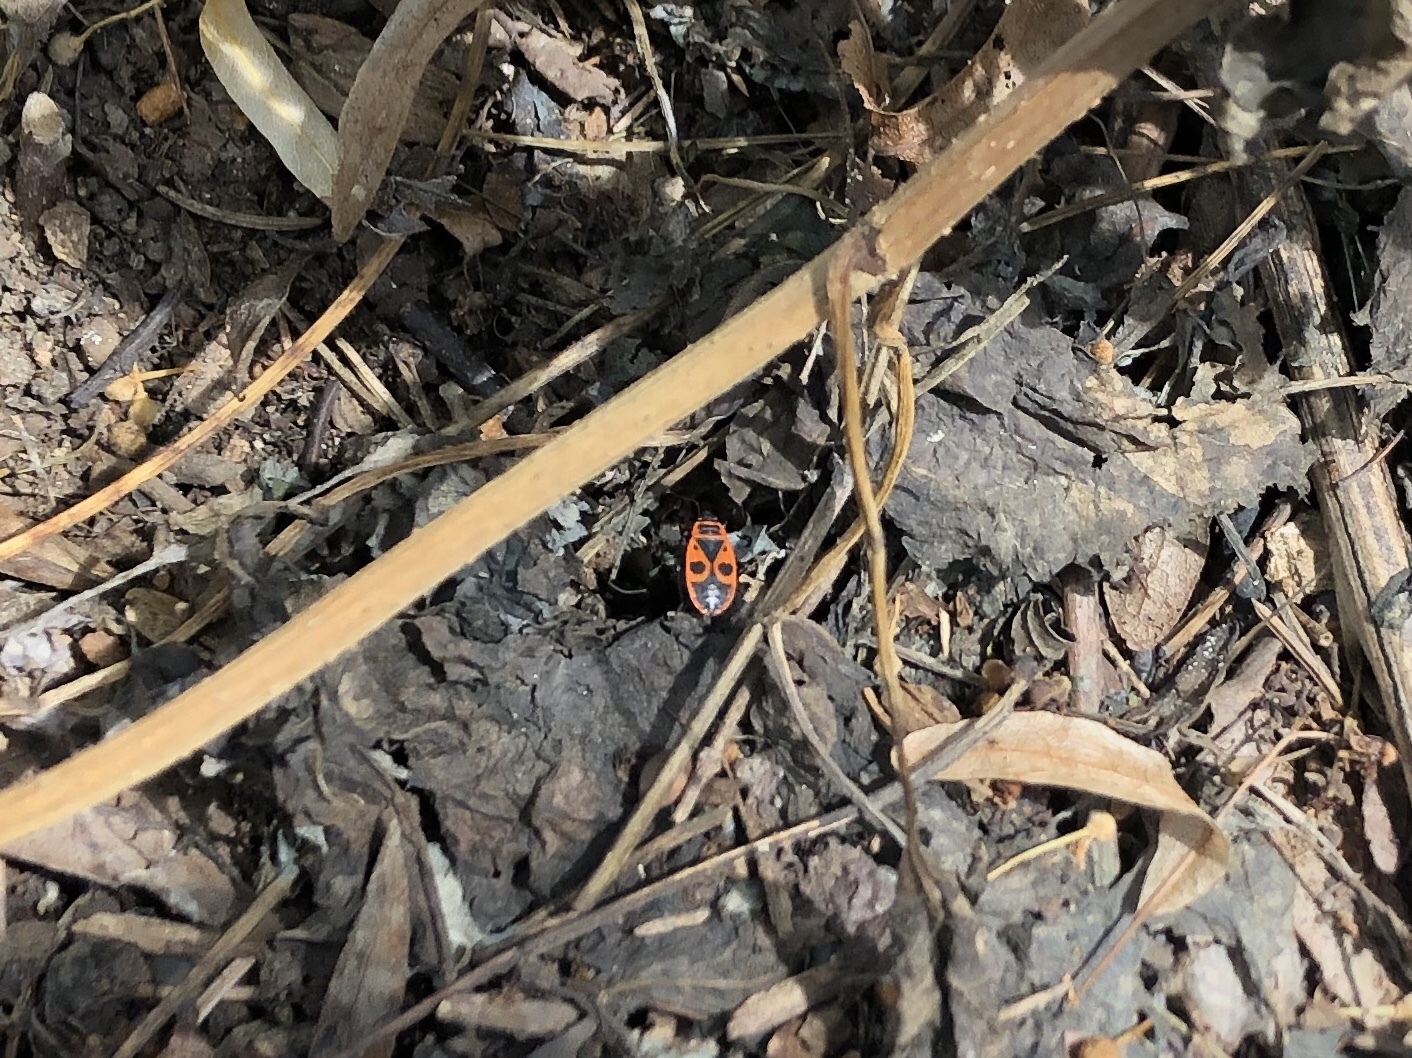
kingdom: Animalia
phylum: Arthropoda
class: Insecta
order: Hemiptera
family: Pyrrhocoridae
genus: Pyrrhocoris
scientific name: Pyrrhocoris apterus
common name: Firebug
